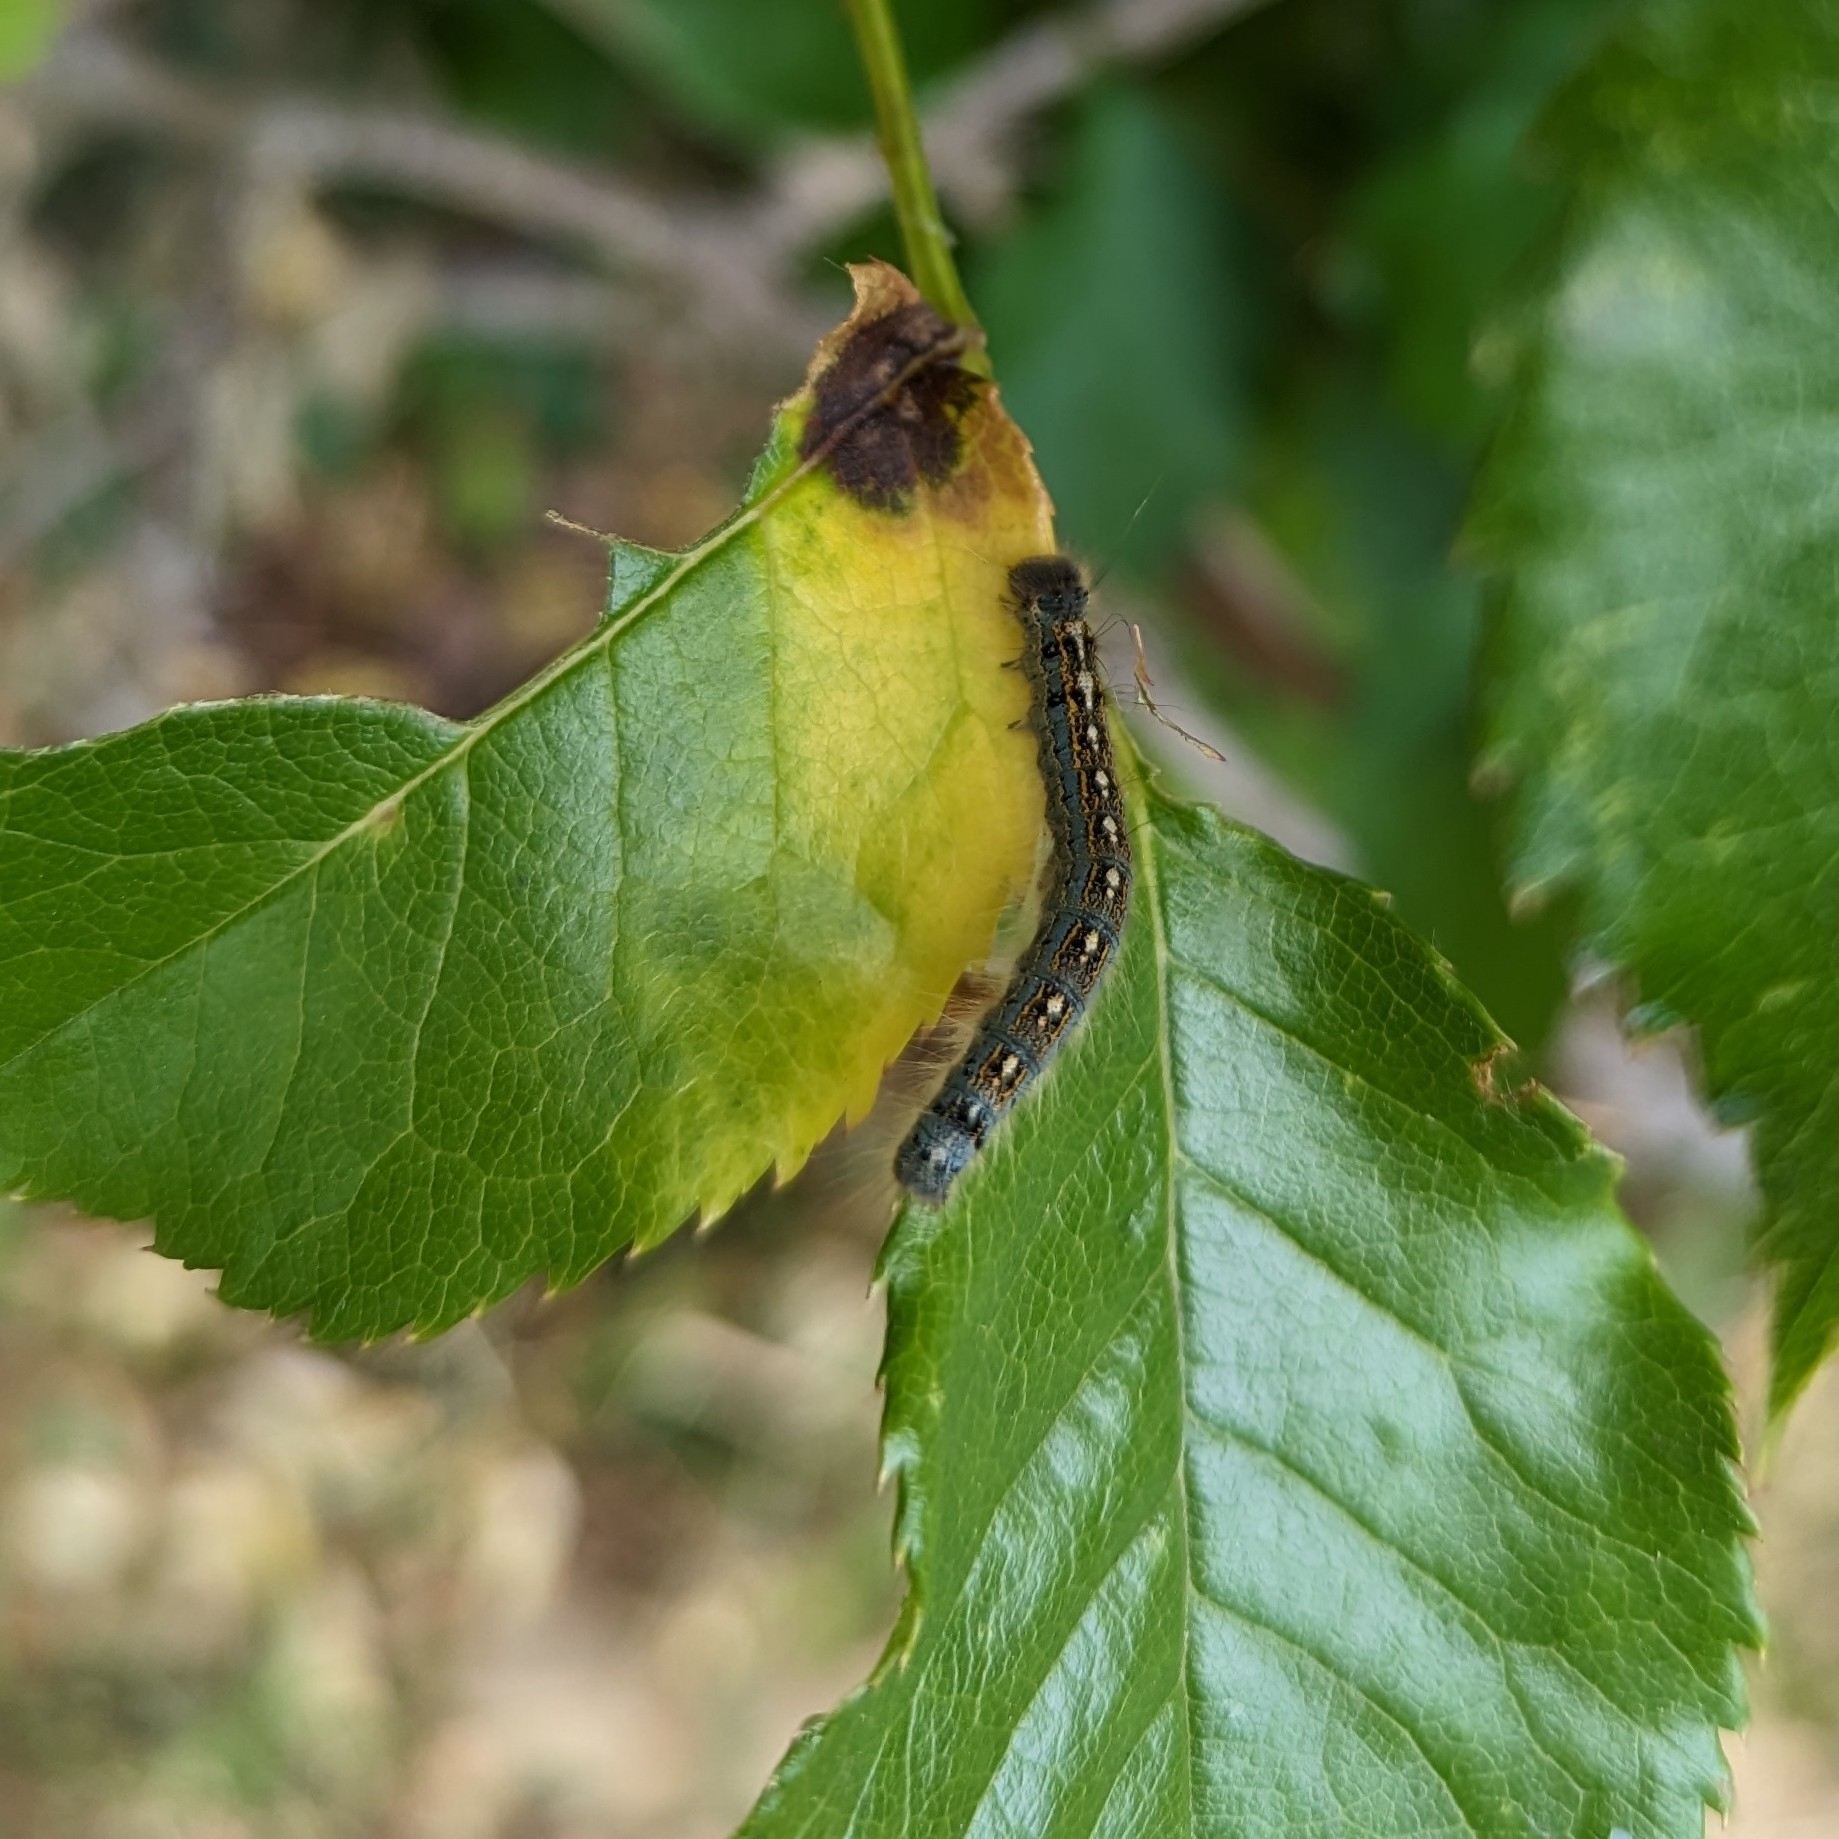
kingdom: Animalia
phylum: Arthropoda
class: Insecta
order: Lepidoptera
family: Lasiocampidae
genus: Malacosoma
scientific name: Malacosoma disstria
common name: Forest tent caterpillar
